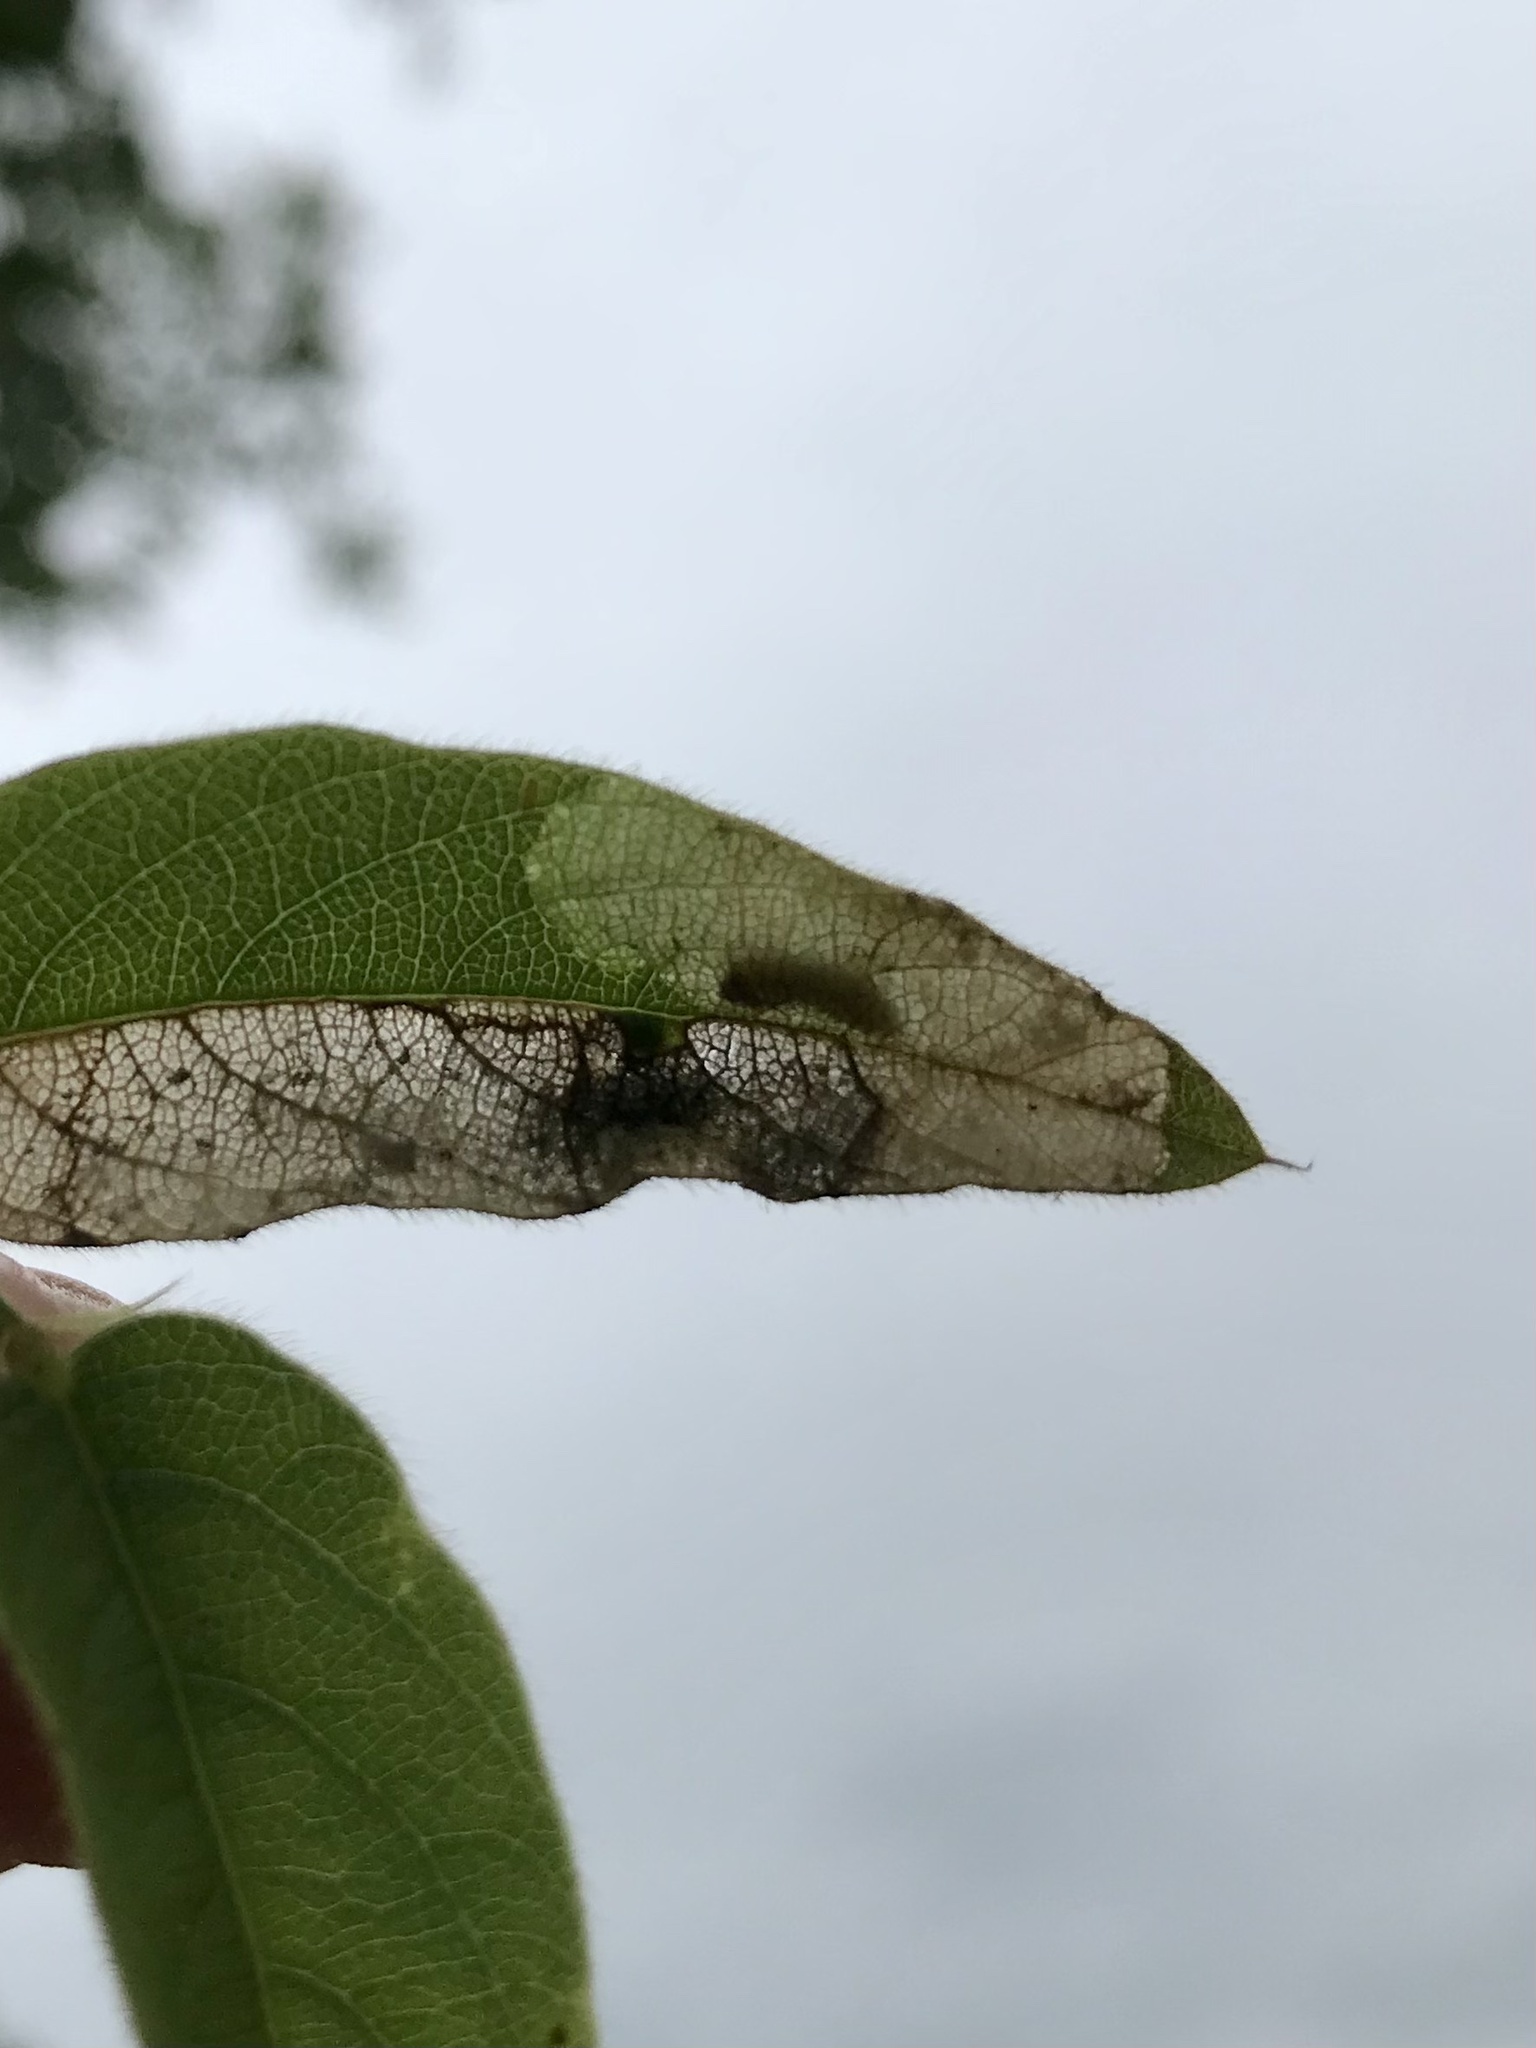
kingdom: Animalia
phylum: Arthropoda
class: Insecta
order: Coleoptera
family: Chrysomelidae
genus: Odontota
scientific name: Odontota horni
